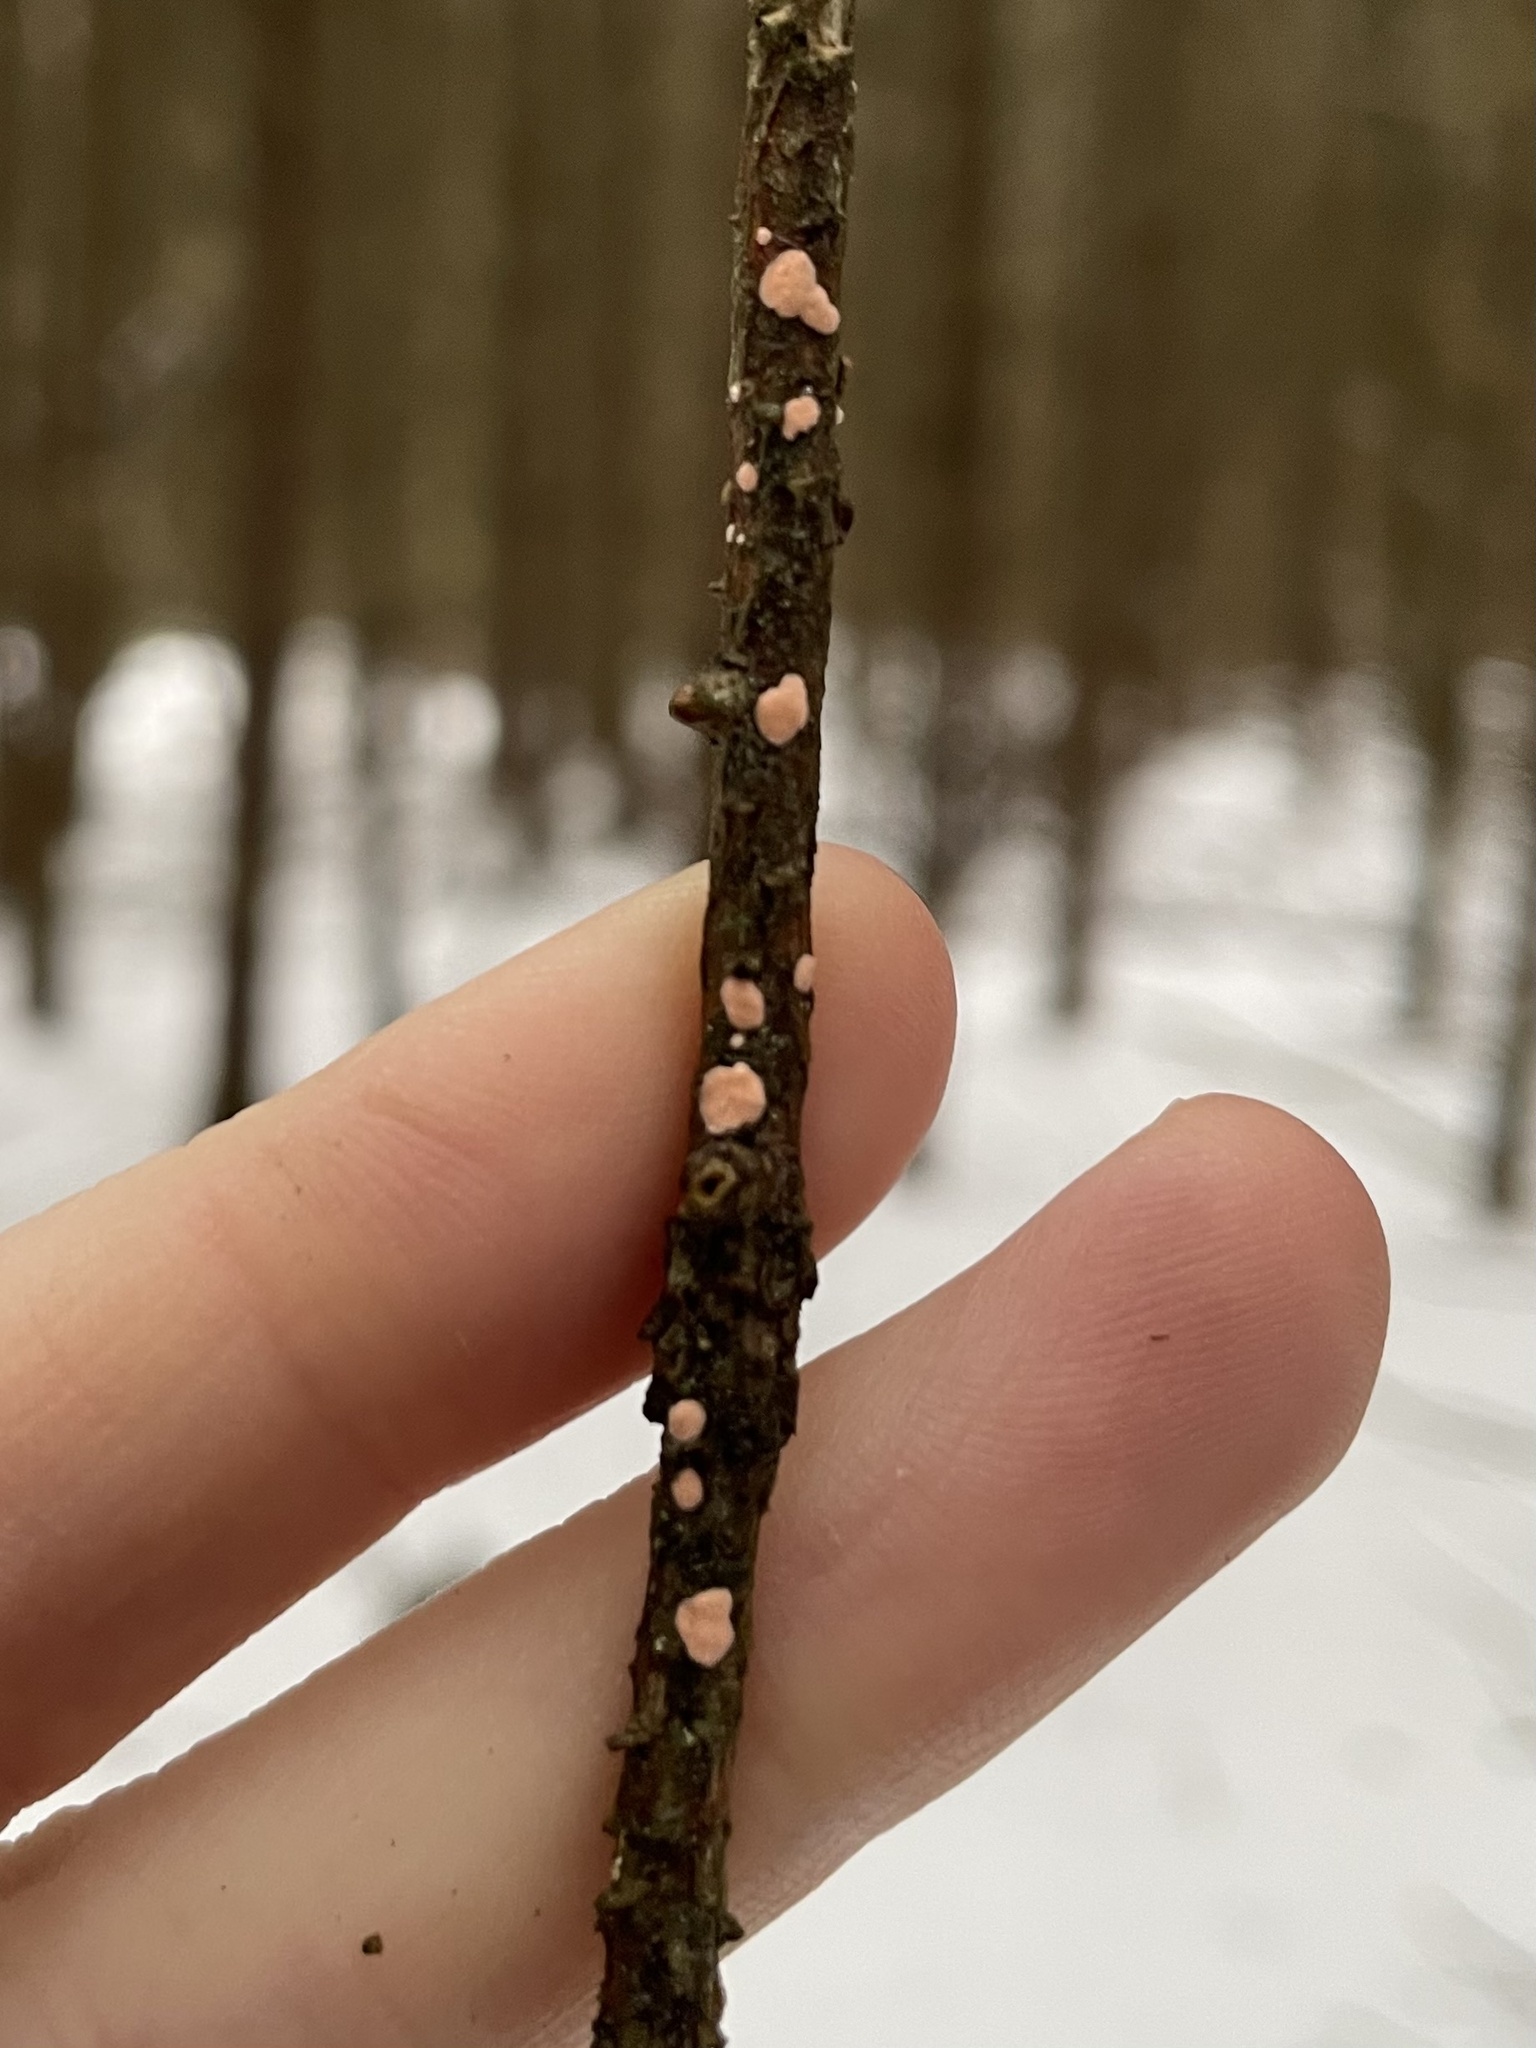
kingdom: Fungi
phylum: Ascomycota
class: Sordariomycetes
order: Hypocreales
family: Nectriaceae
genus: Nectria
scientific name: Nectria cinnabarina
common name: Coral spot
